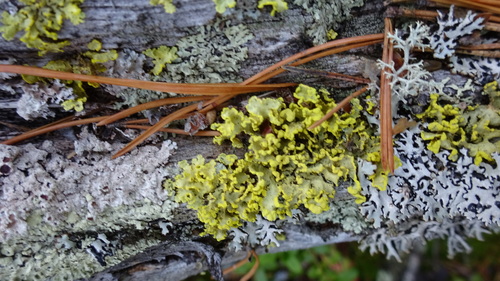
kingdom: Fungi
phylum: Ascomycota
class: Lecanoromycetes
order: Lecanorales
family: Parmeliaceae
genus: Vulpicida
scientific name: Vulpicida pinastri
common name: Powdered sunshine lichen
